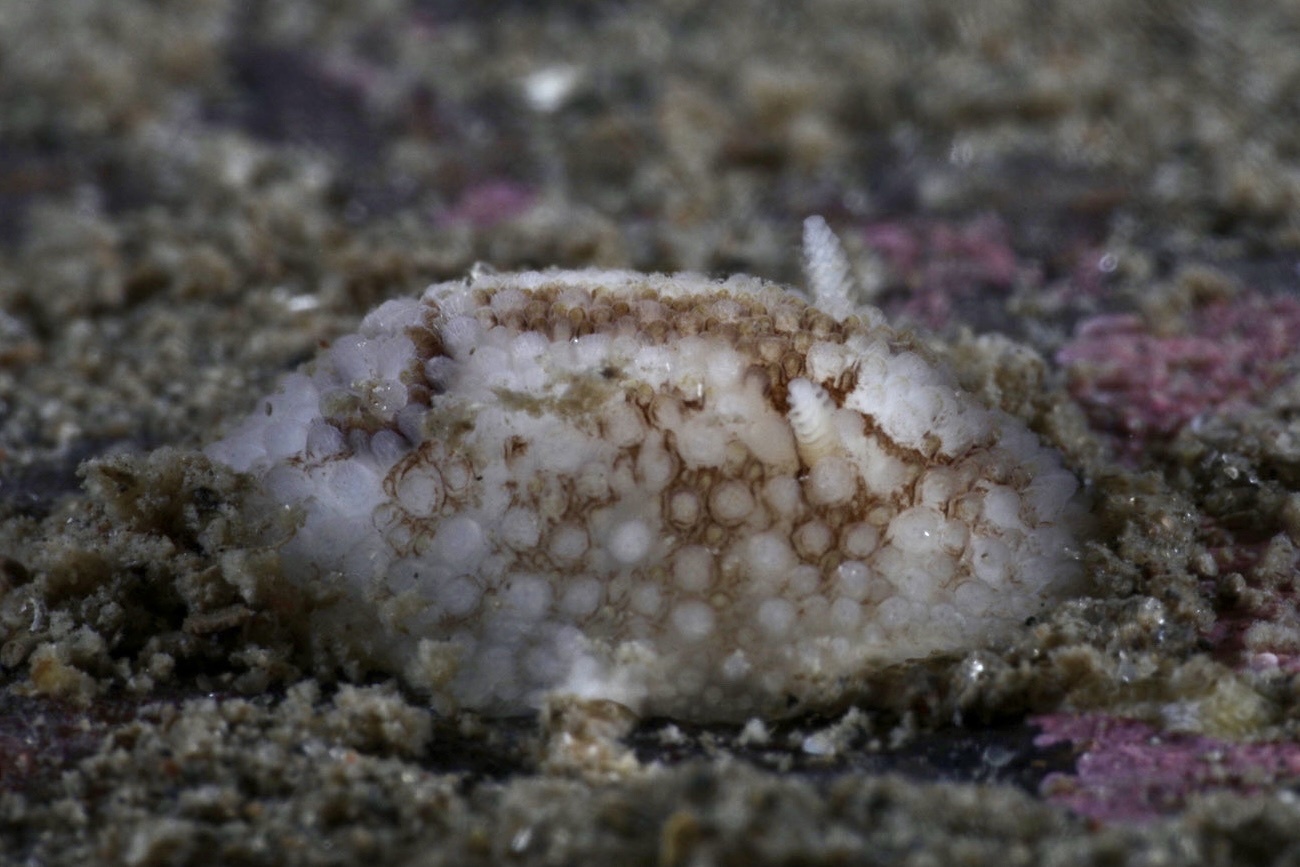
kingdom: Animalia
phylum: Mollusca
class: Gastropoda
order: Nudibranchia
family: Onchidorididae
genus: Onchidoris
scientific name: Onchidoris bilamellata
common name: Barnacle-eating onchidoris
